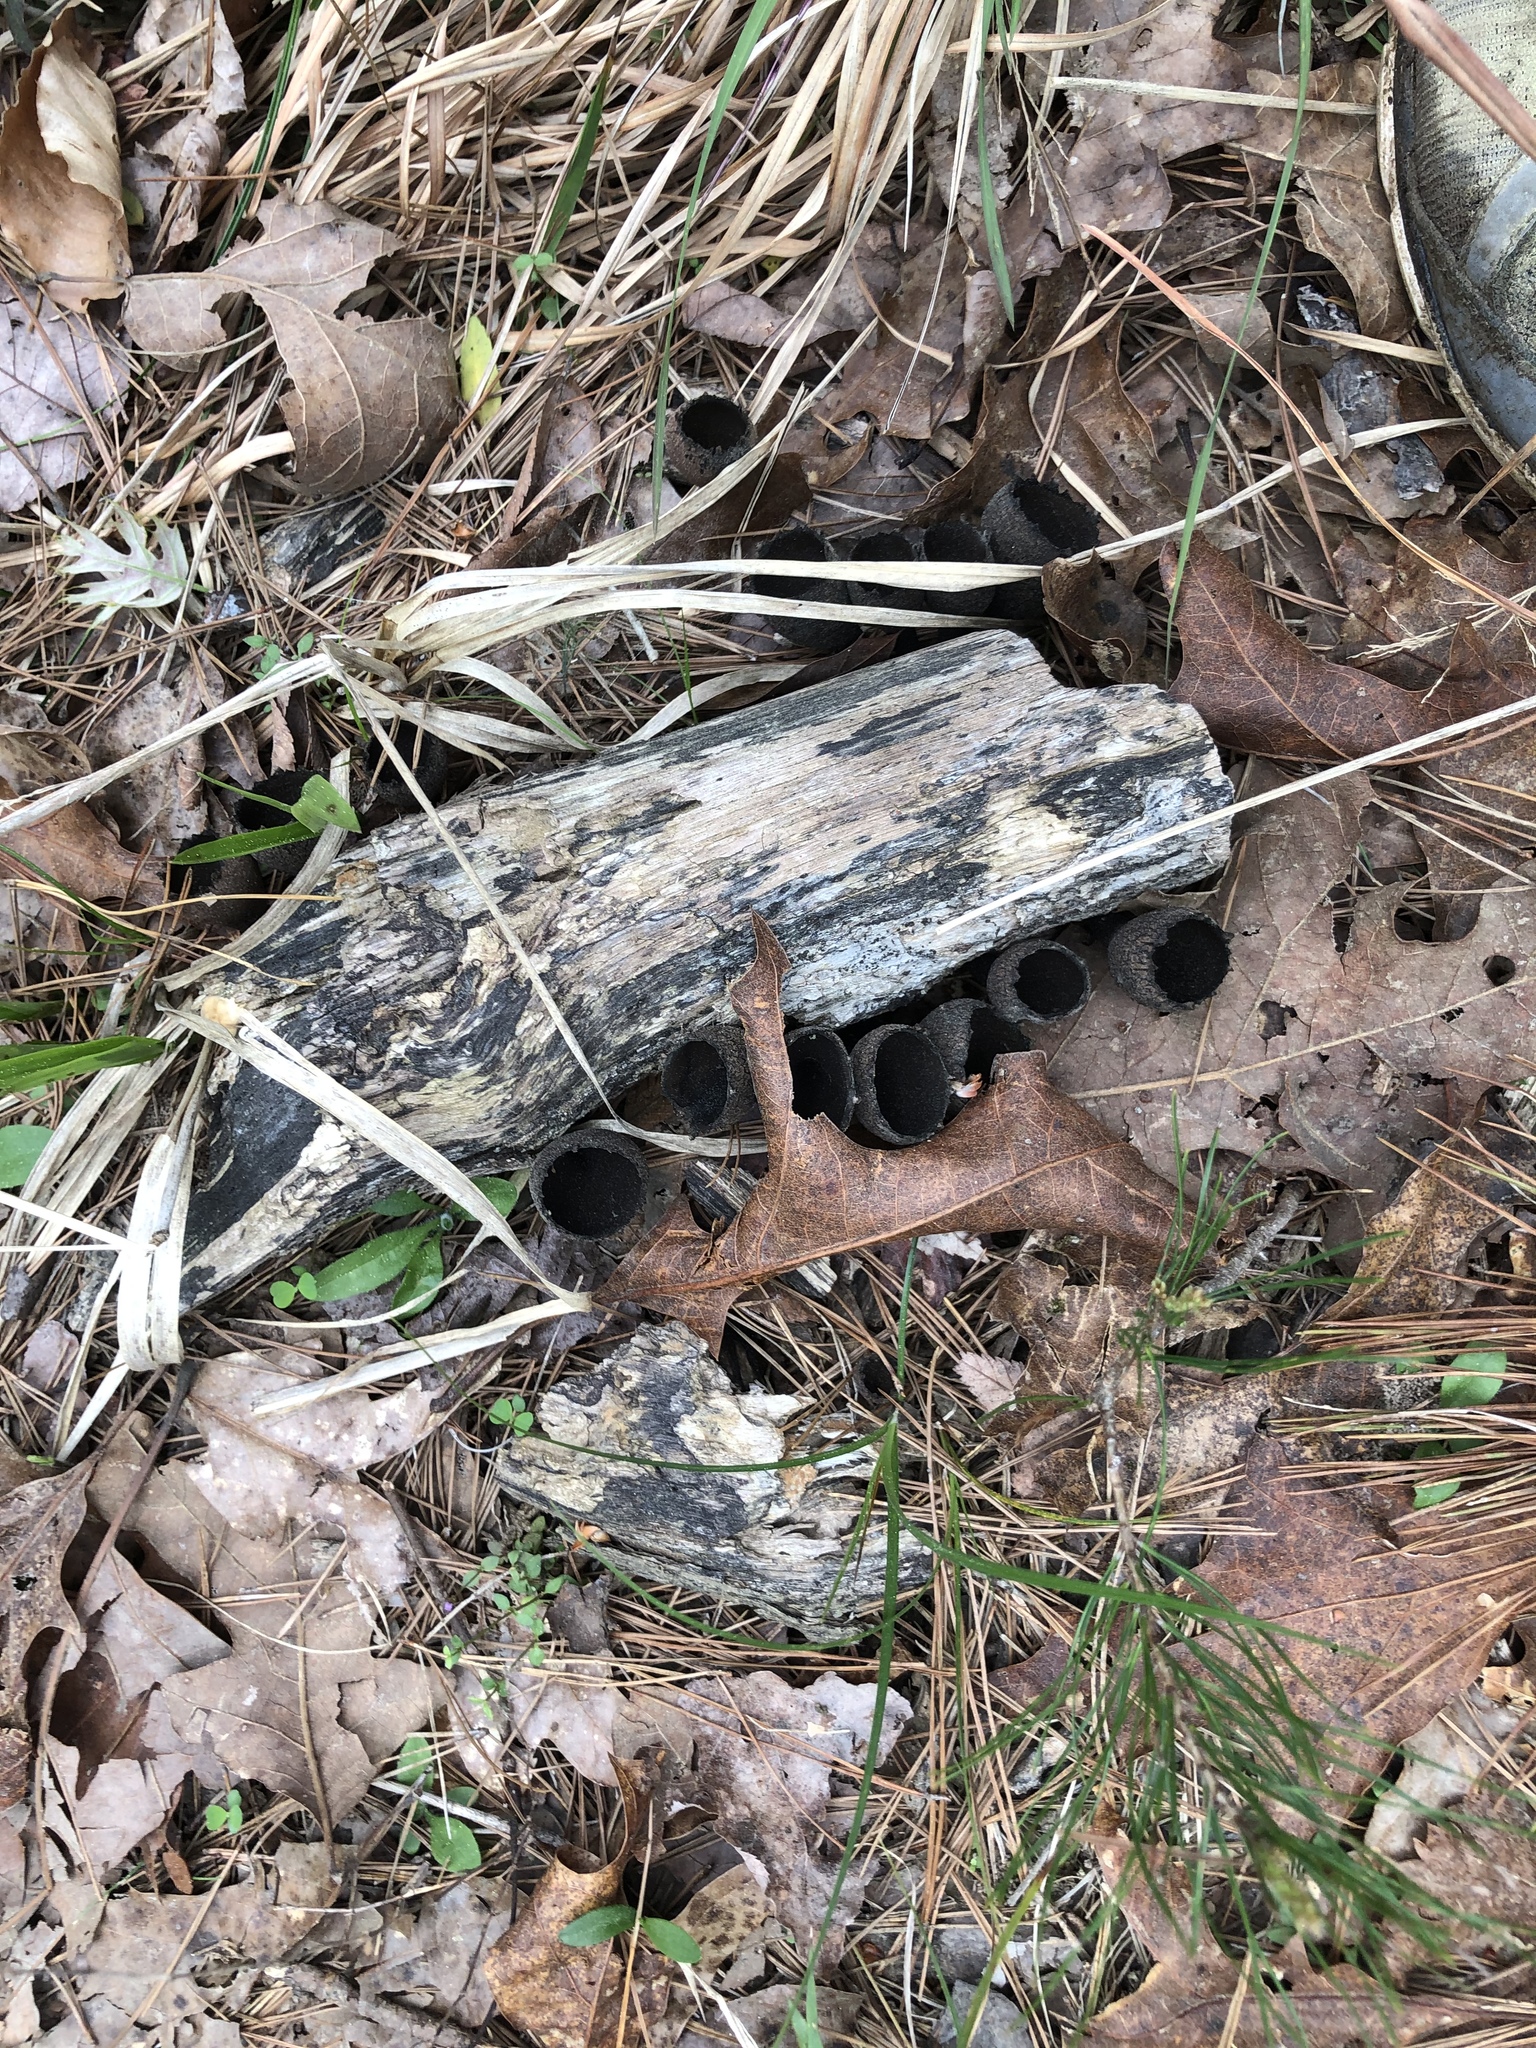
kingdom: Fungi
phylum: Ascomycota
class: Pezizomycetes
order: Pezizales
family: Sarcosomataceae
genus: Urnula
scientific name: Urnula craterium
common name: Devil's urn
